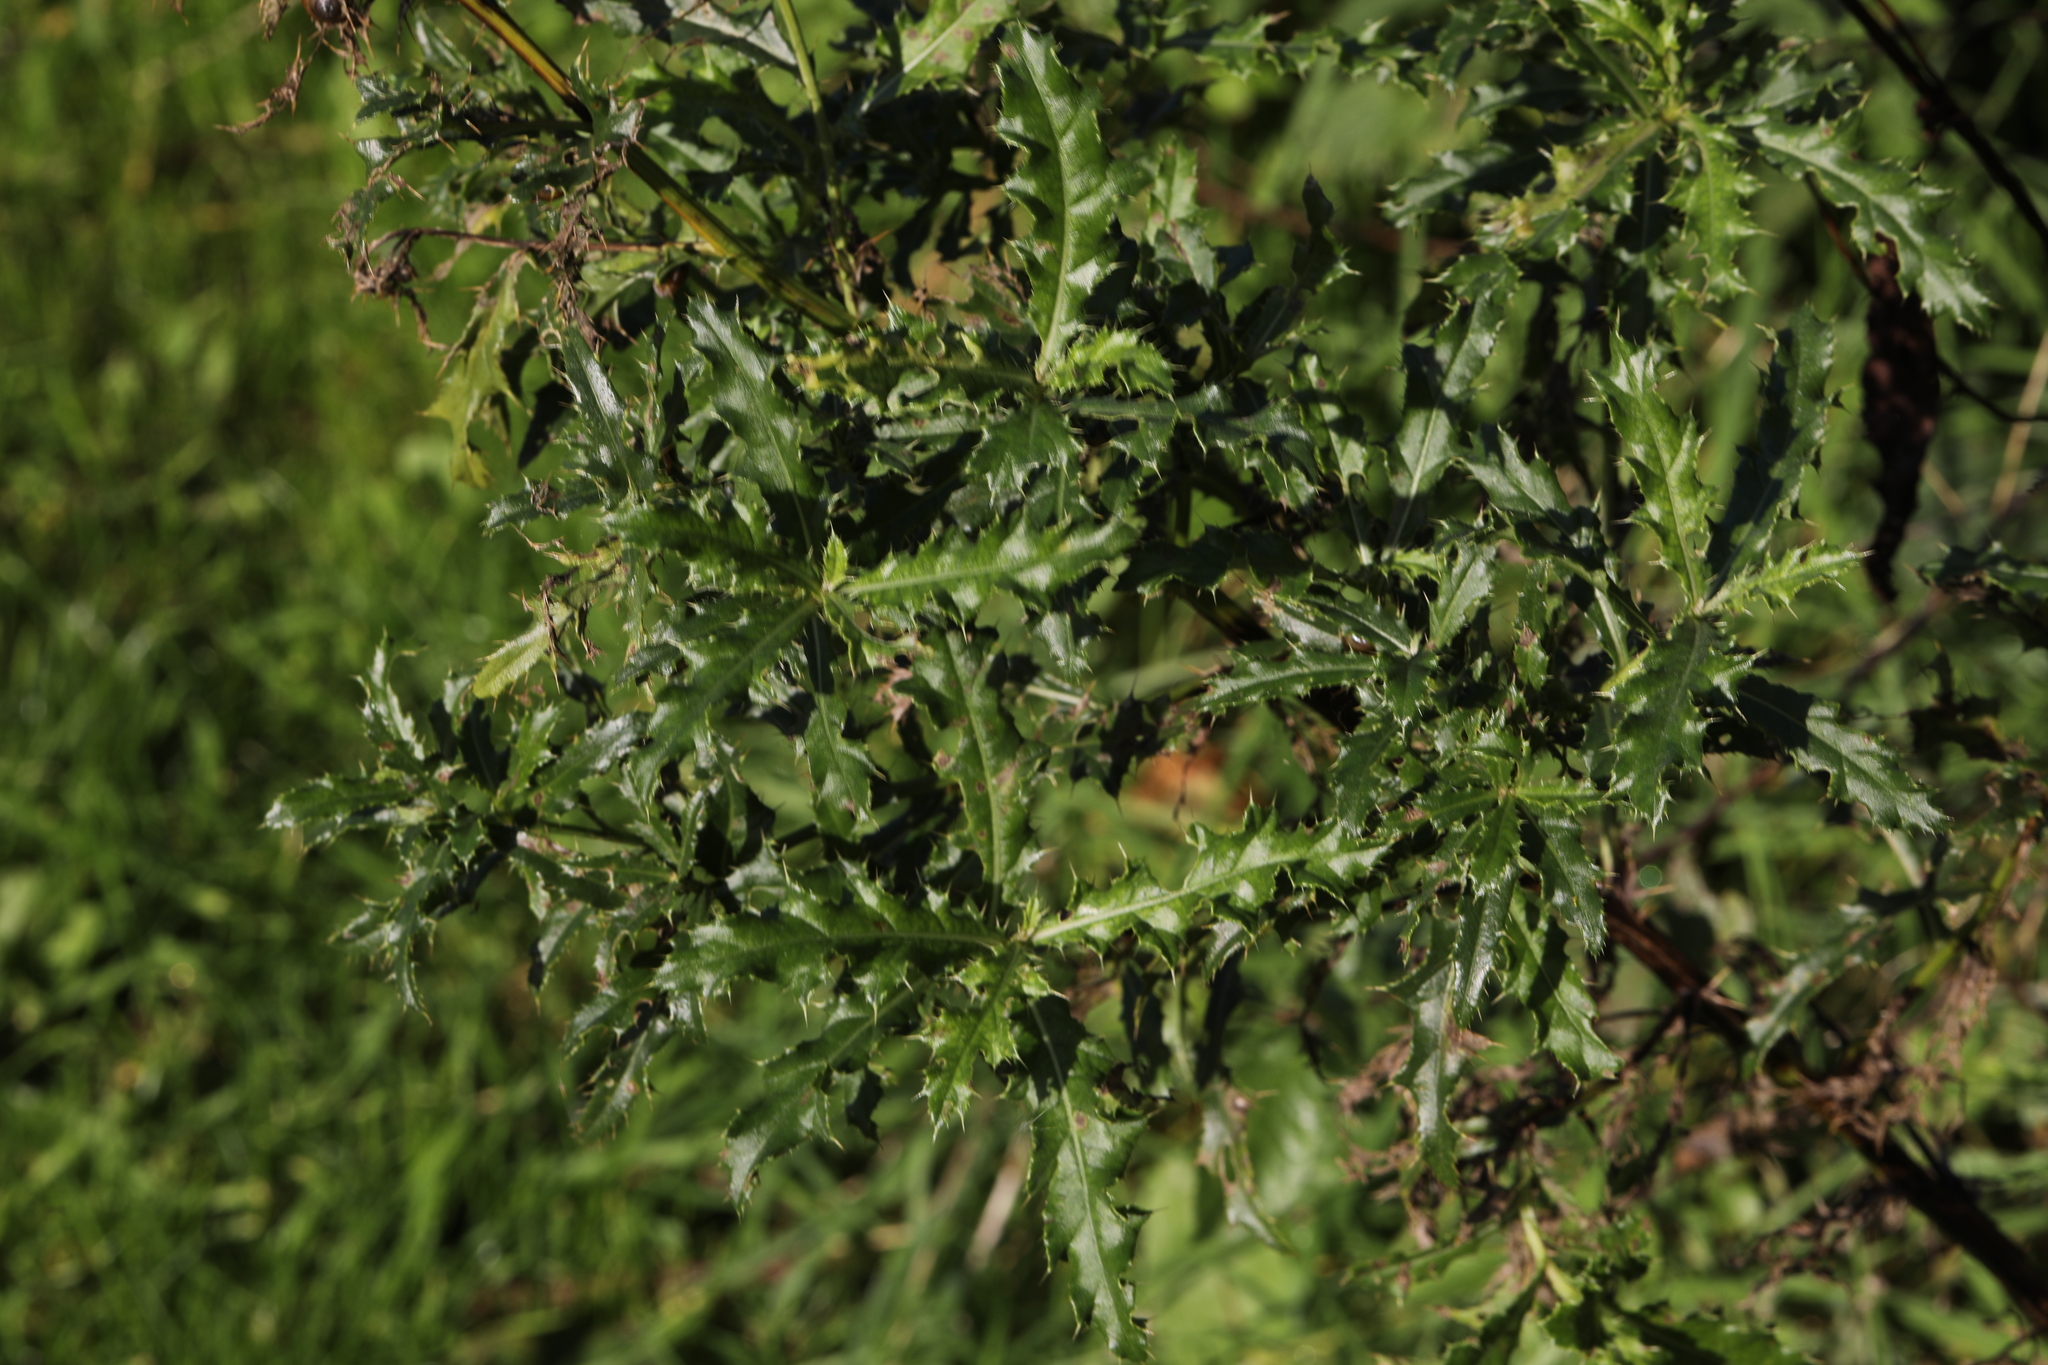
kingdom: Plantae
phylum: Tracheophyta
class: Magnoliopsida
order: Asterales
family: Asteraceae
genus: Cirsium
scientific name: Cirsium arvense
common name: Creeping thistle
